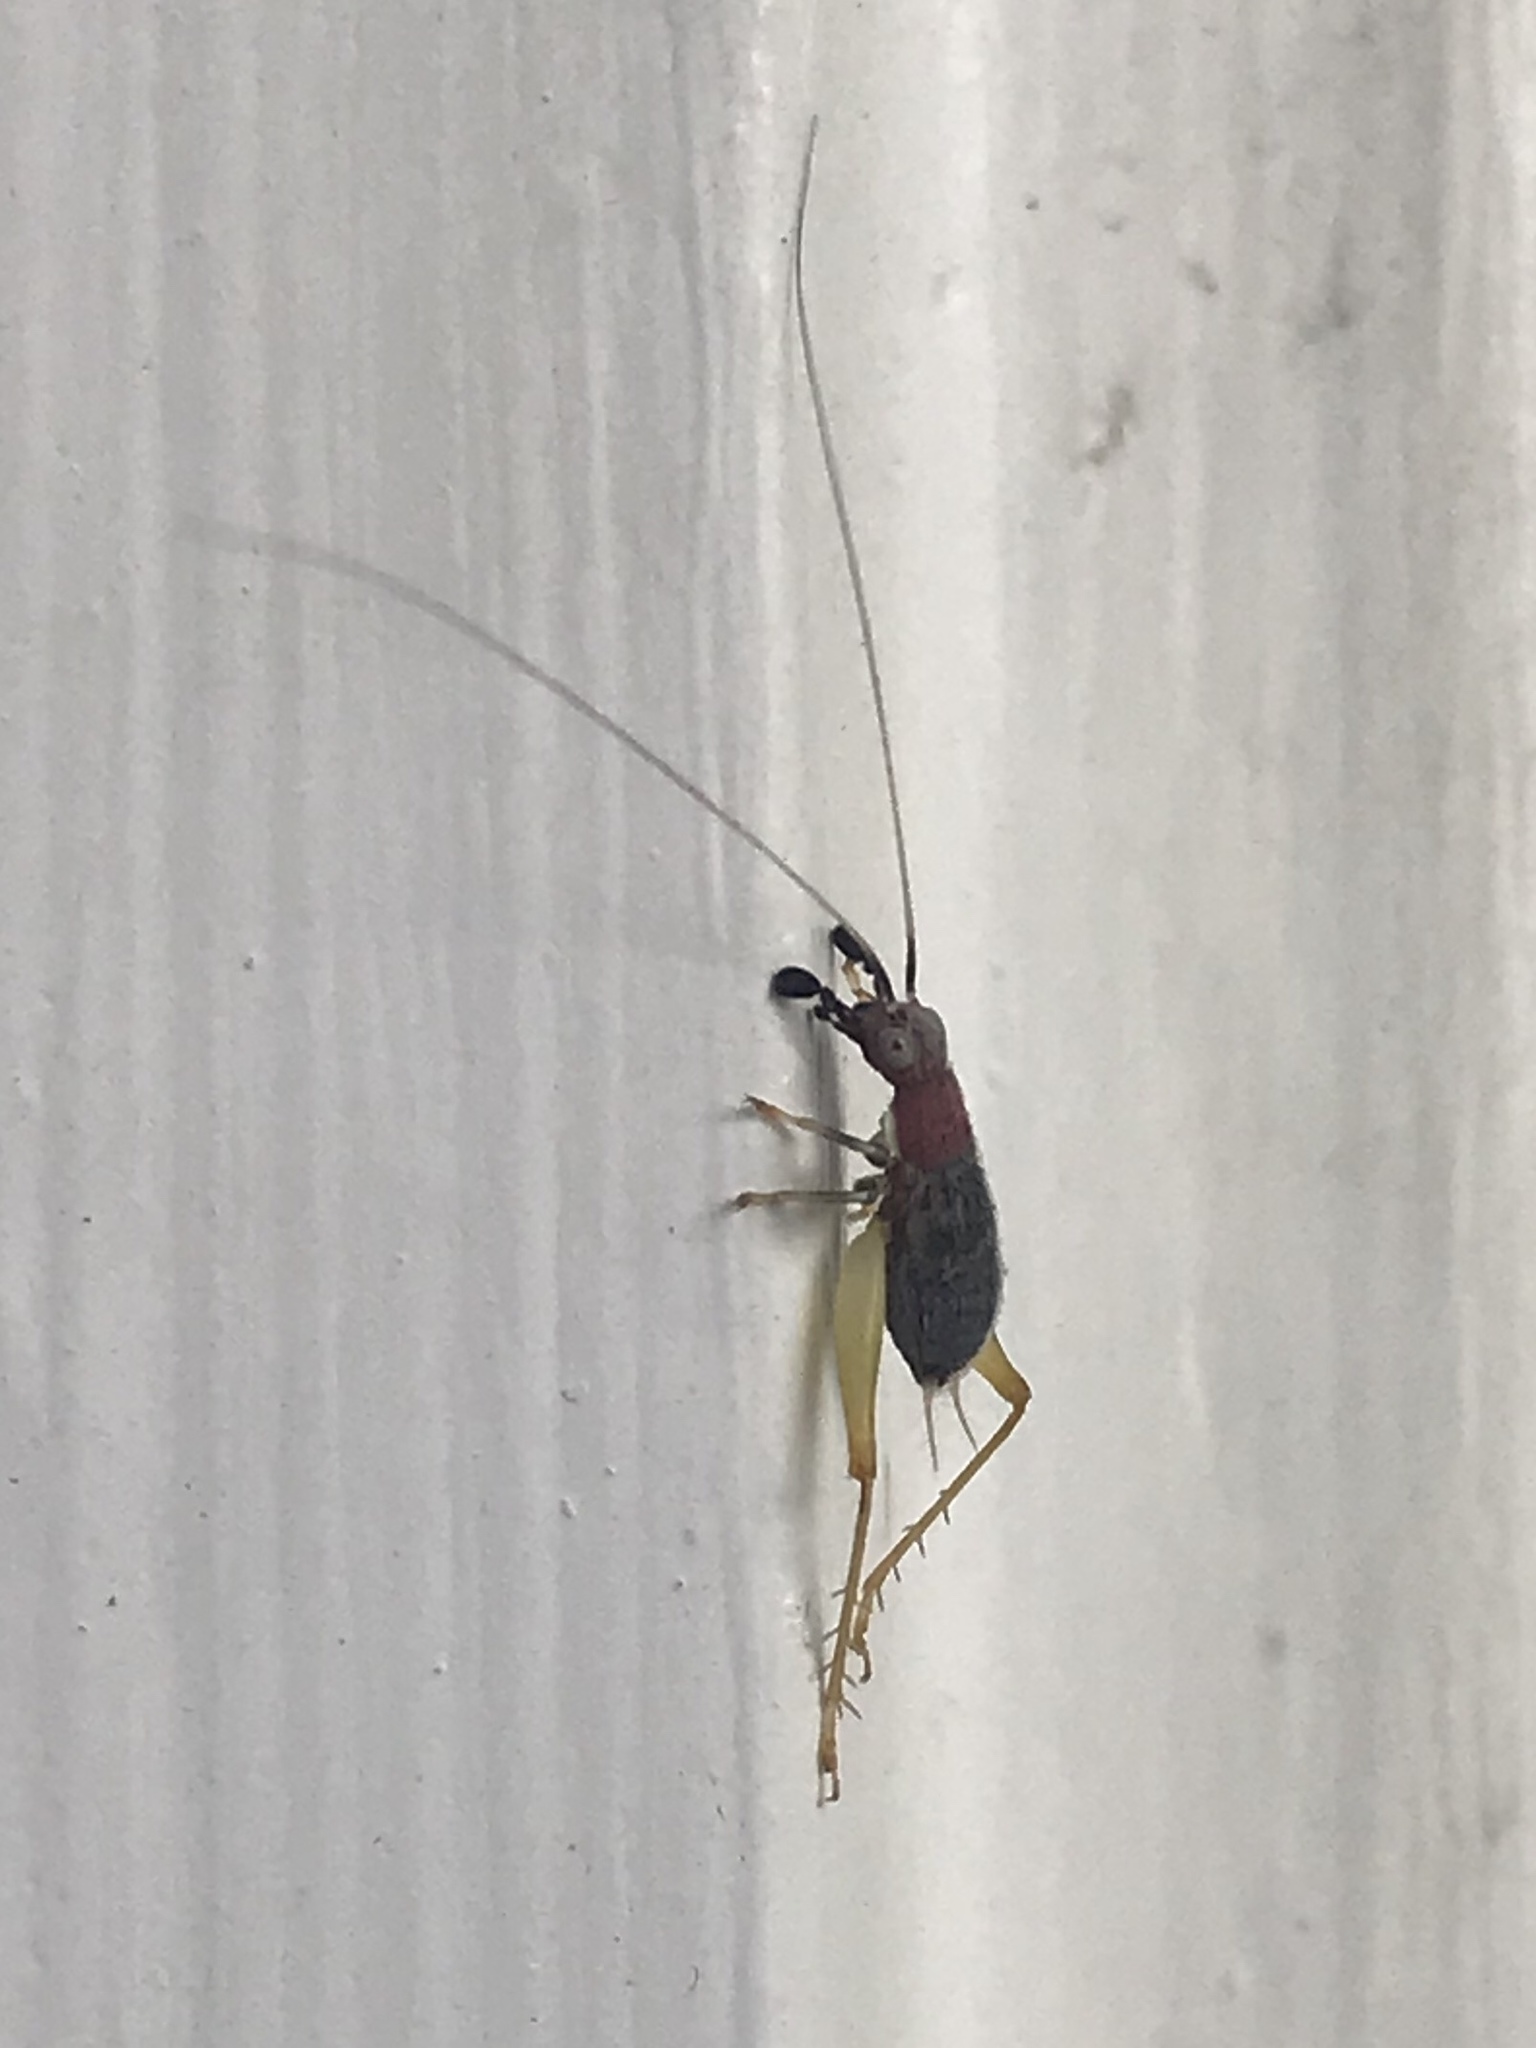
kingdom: Animalia
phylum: Arthropoda
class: Insecta
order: Orthoptera
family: Trigonidiidae
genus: Phyllopalpus
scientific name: Phyllopalpus pulchellus
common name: Handsome trig
